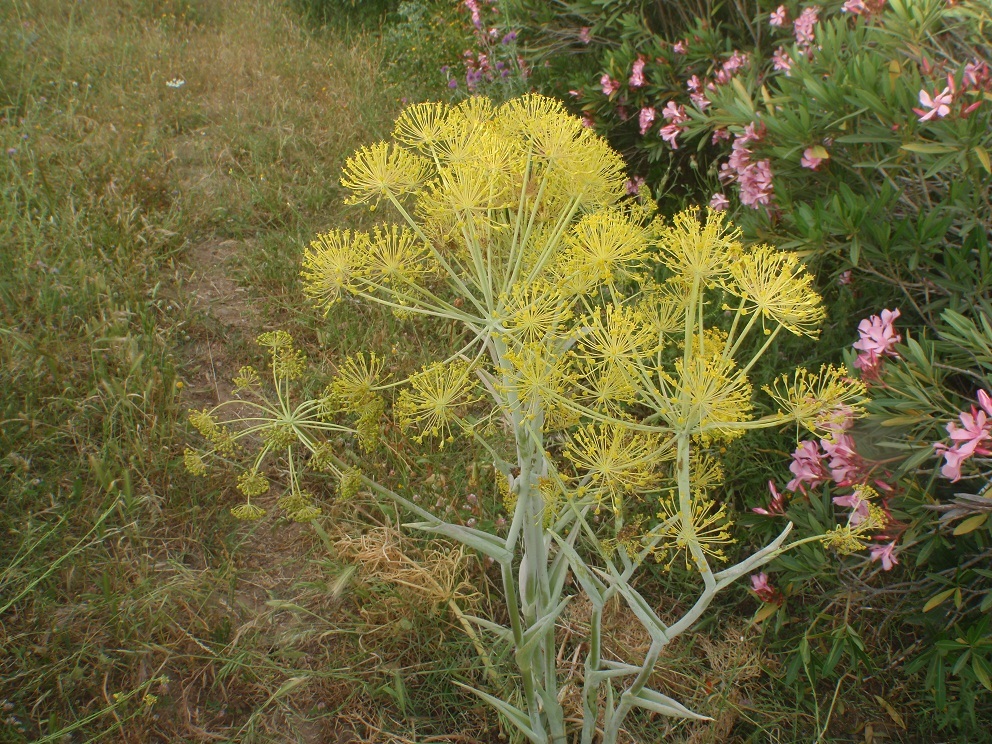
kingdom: Plantae
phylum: Tracheophyta
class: Magnoliopsida
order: Apiales
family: Apiaceae
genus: Thapsia
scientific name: Thapsia garganica
